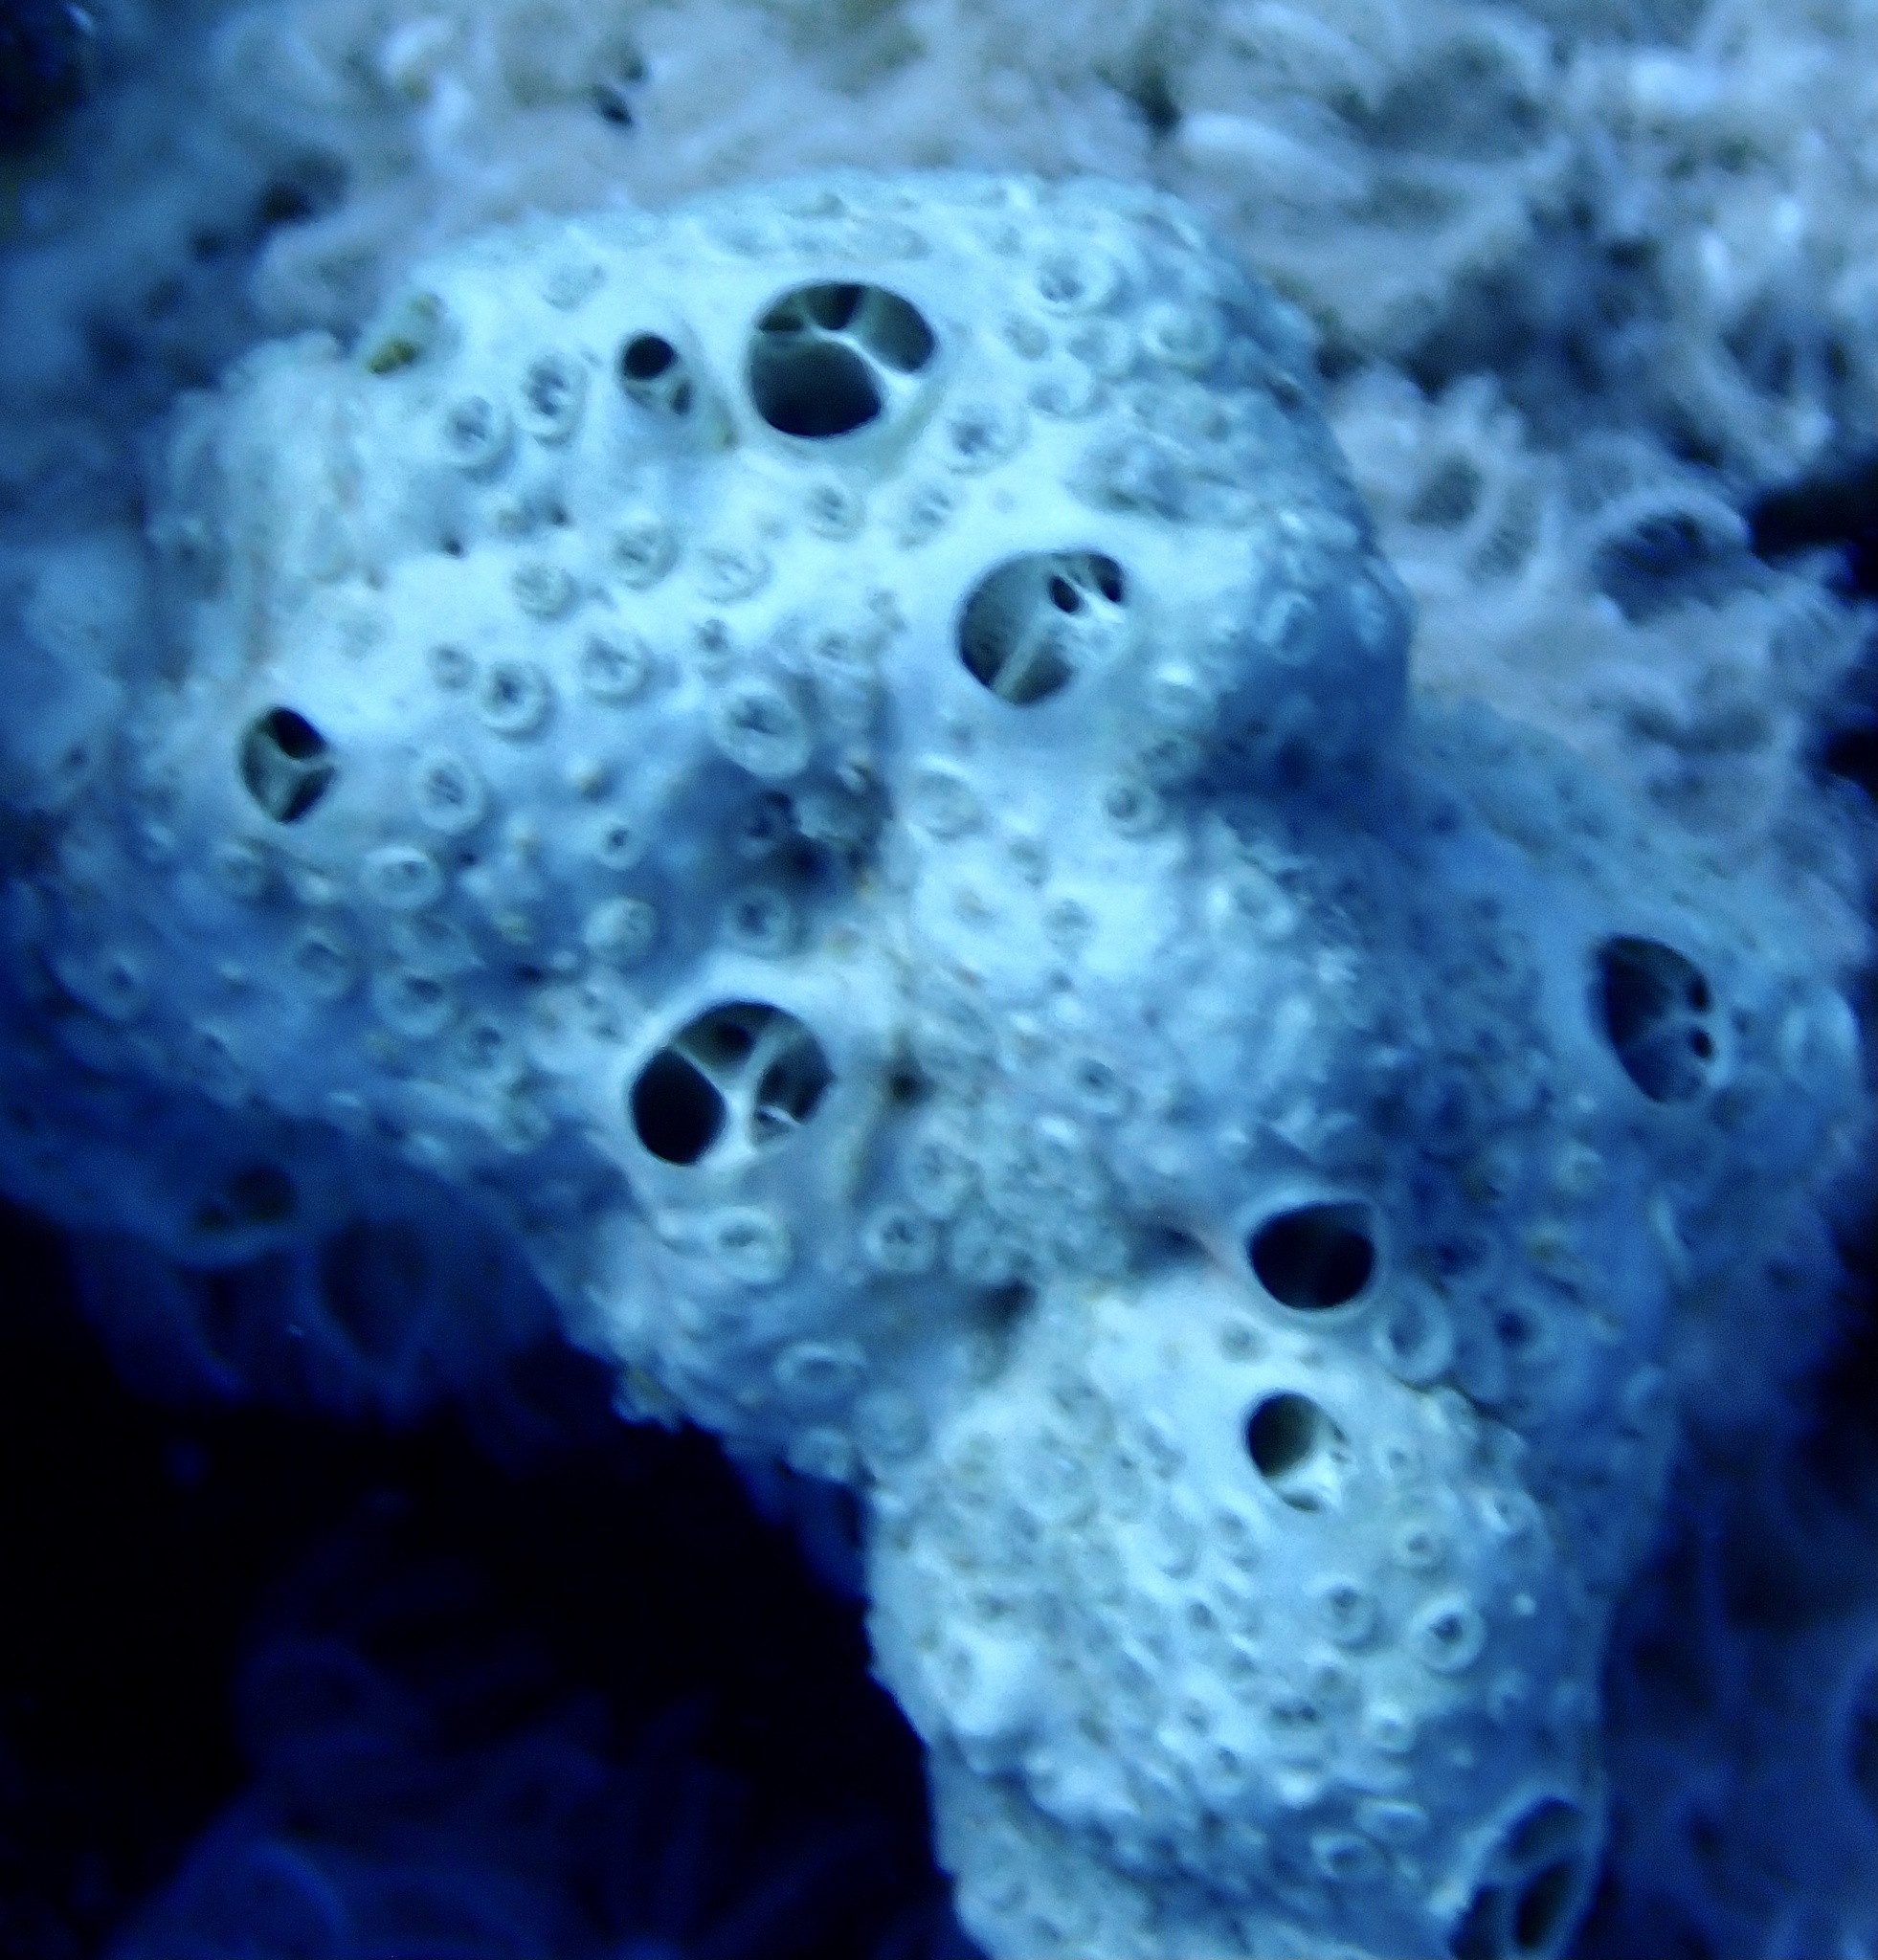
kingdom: Animalia
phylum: Porifera
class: Demospongiae
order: Poecilosclerida
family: Crellidae
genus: Crella
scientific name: Crella cyathophora
